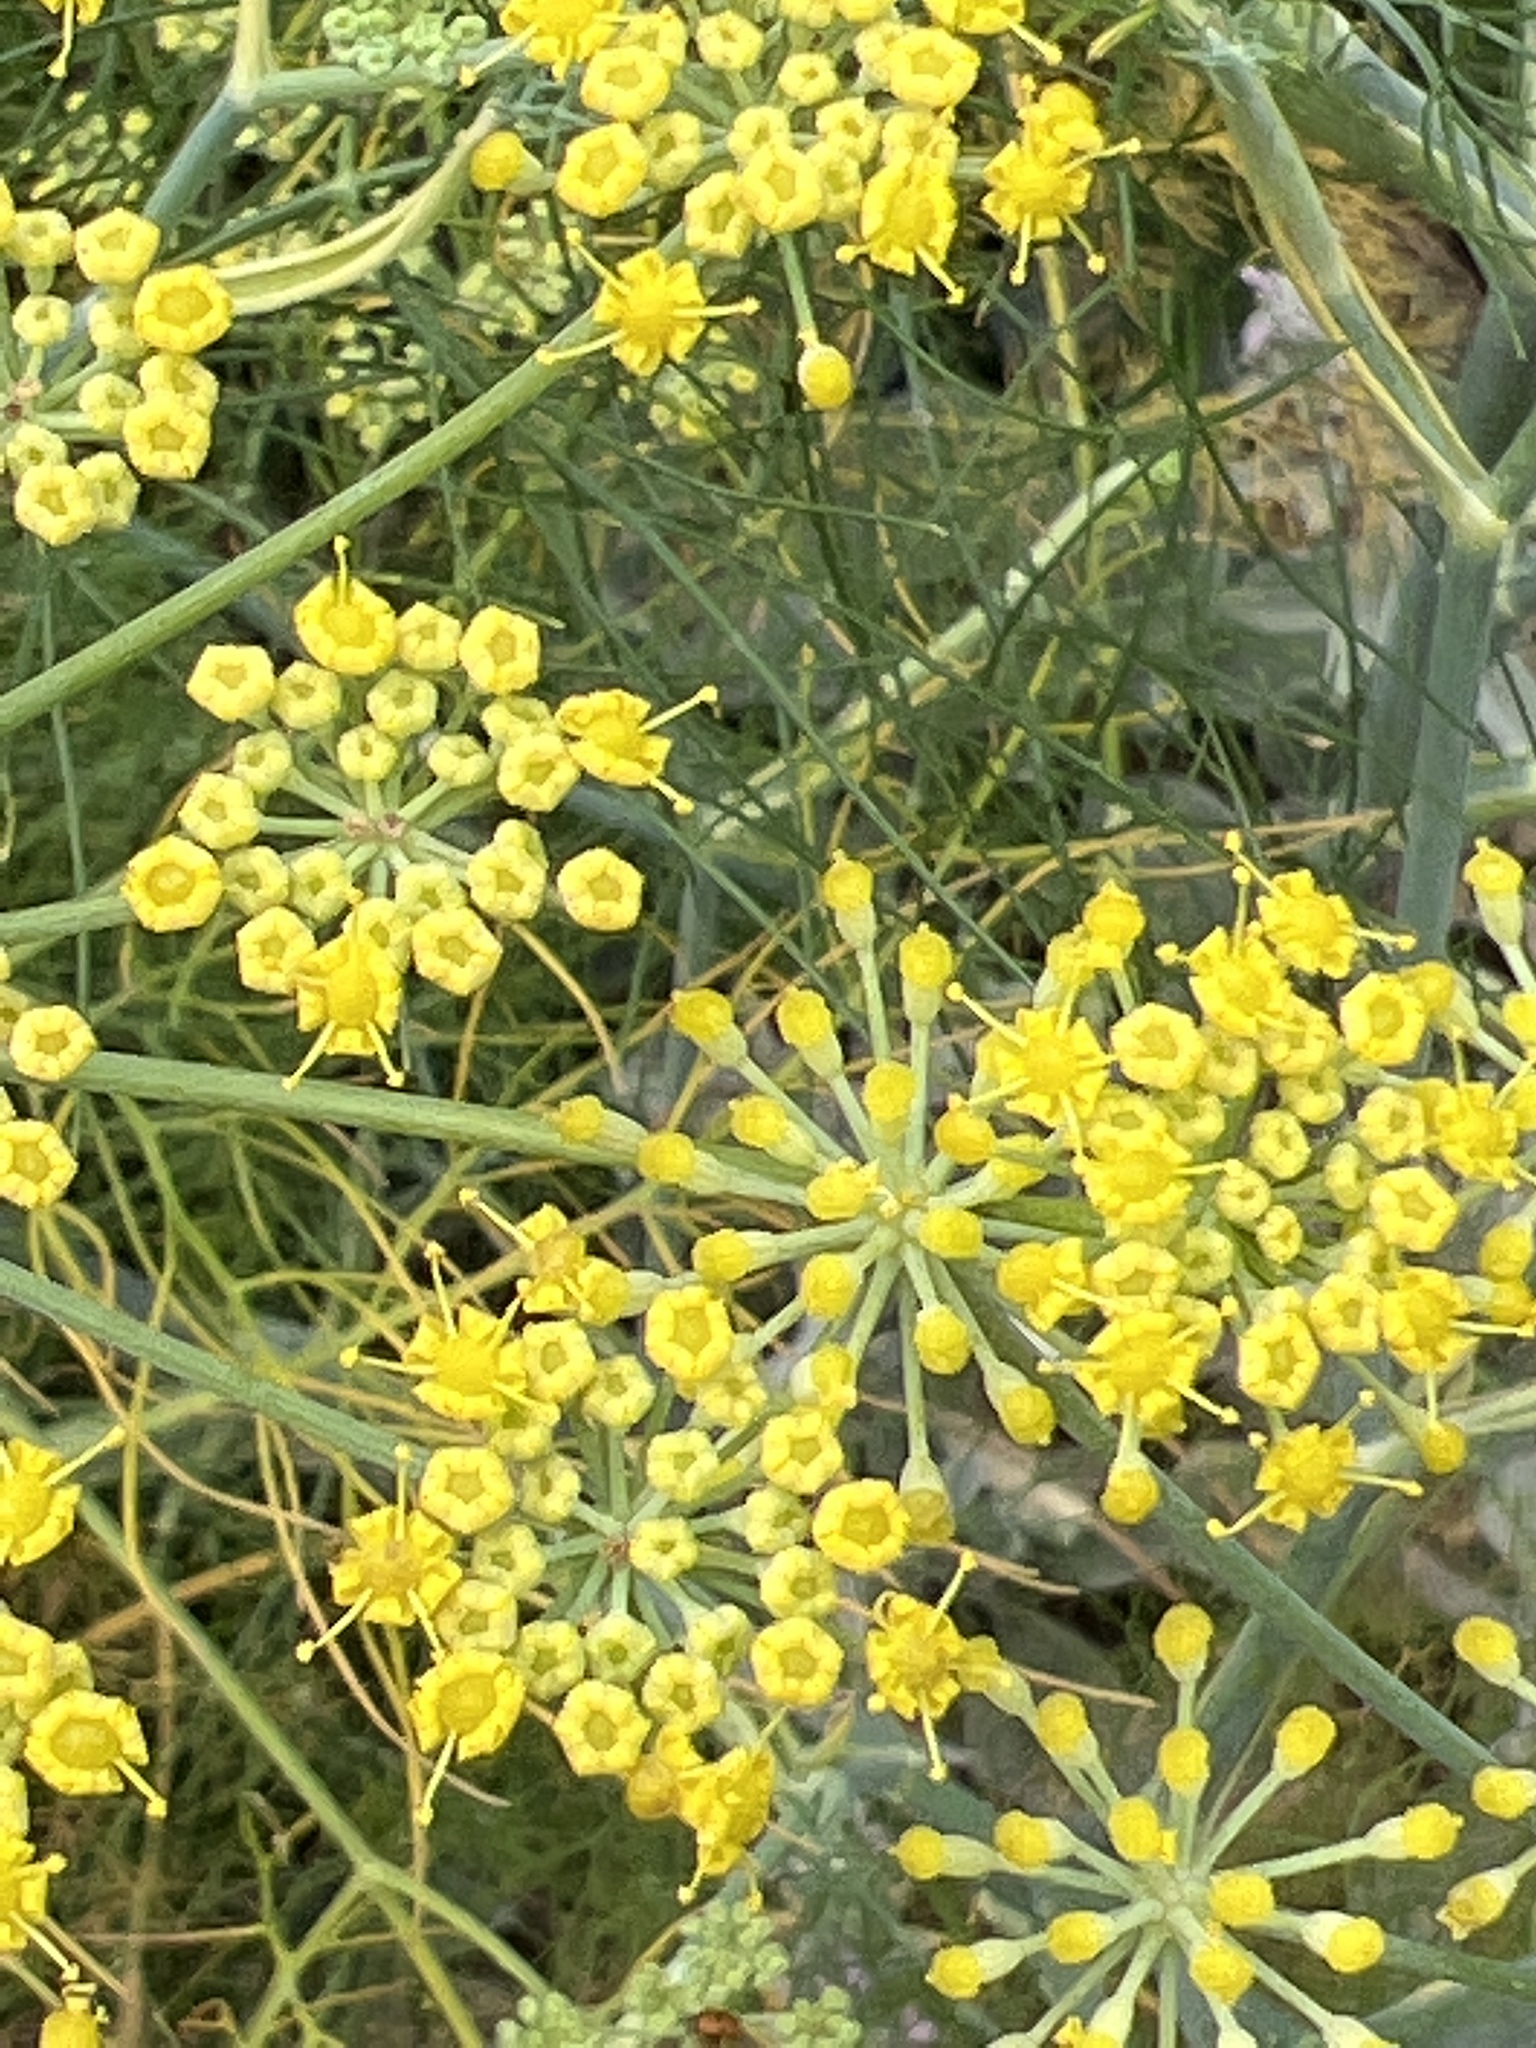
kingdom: Plantae
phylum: Tracheophyta
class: Magnoliopsida
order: Apiales
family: Apiaceae
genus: Foeniculum
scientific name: Foeniculum vulgare
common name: Fennel
